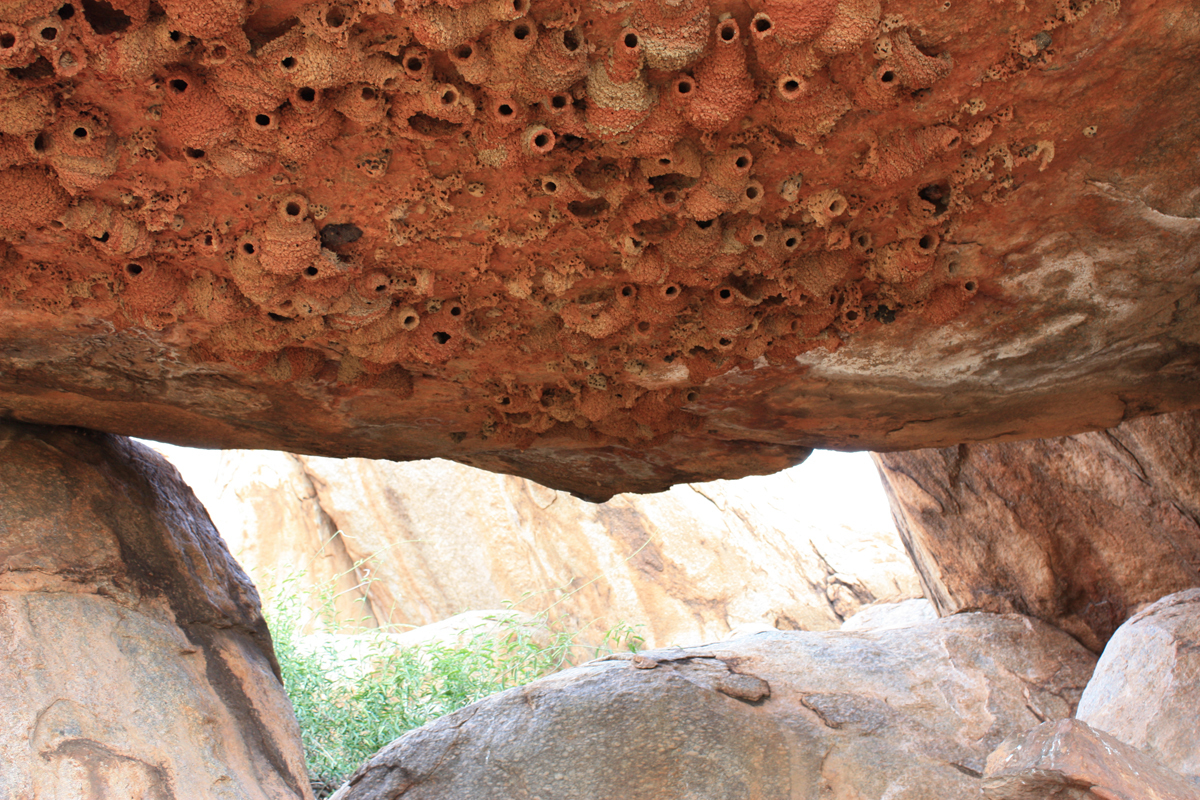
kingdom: Animalia
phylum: Chordata
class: Aves
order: Passeriformes
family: Hirundinidae
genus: Petrochelidon
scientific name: Petrochelidon ariel
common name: Fairy martin
